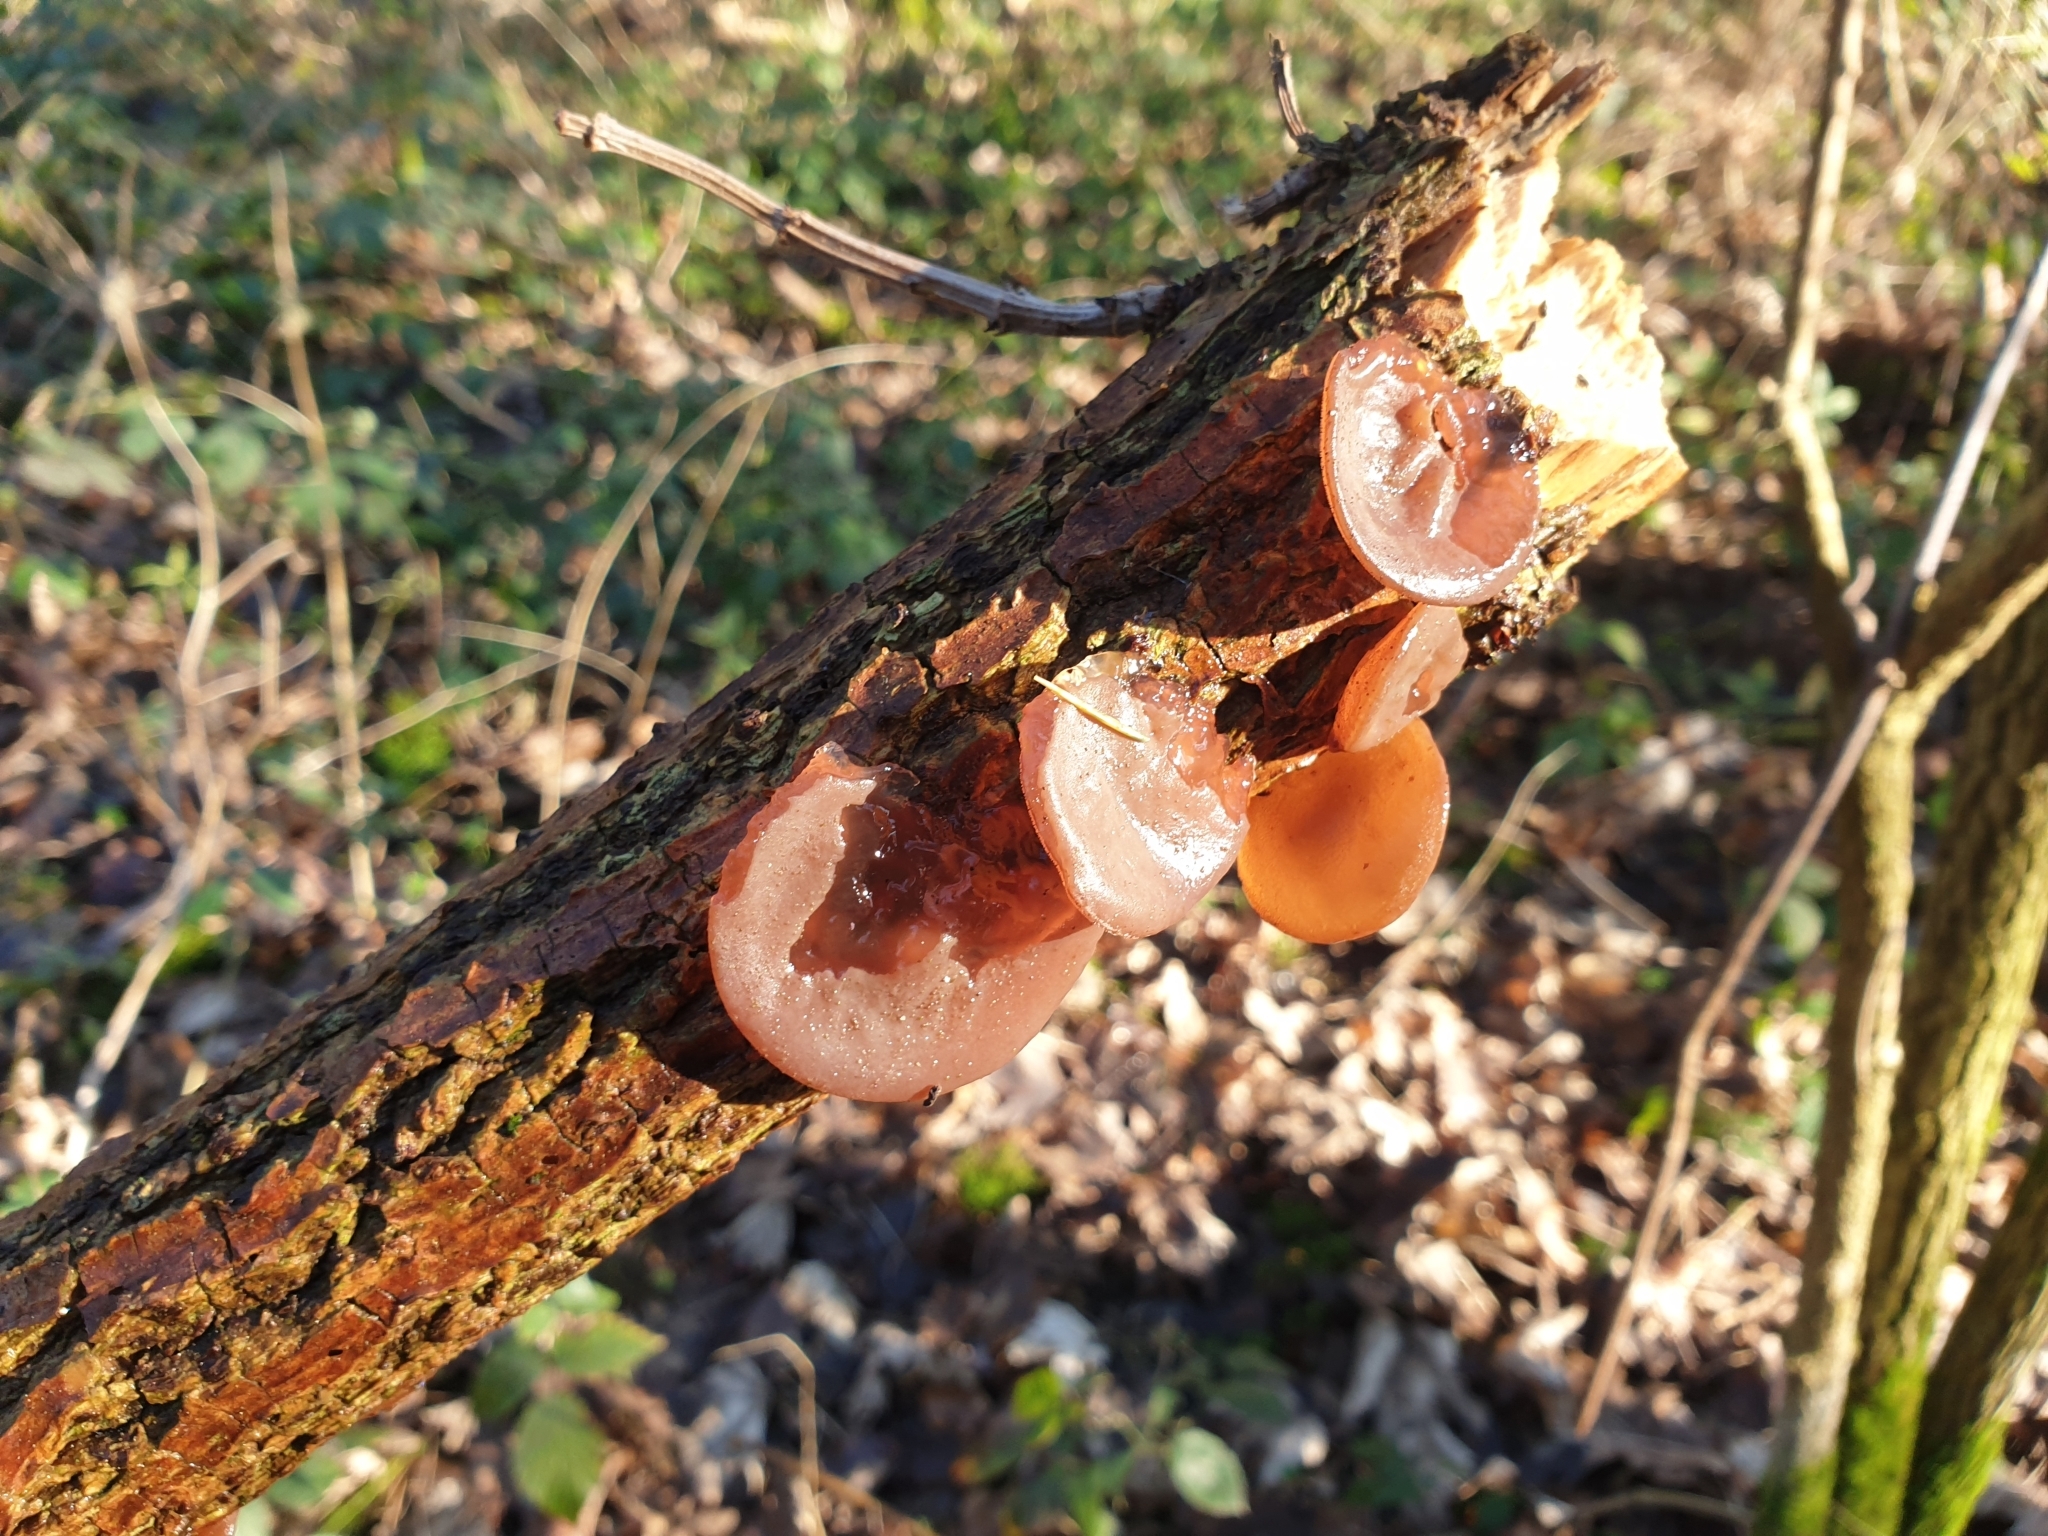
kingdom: Fungi
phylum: Basidiomycota
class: Agaricomycetes
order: Auriculariales
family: Auriculariaceae
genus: Auricularia
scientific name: Auricularia auricula-judae
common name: Jelly ear
